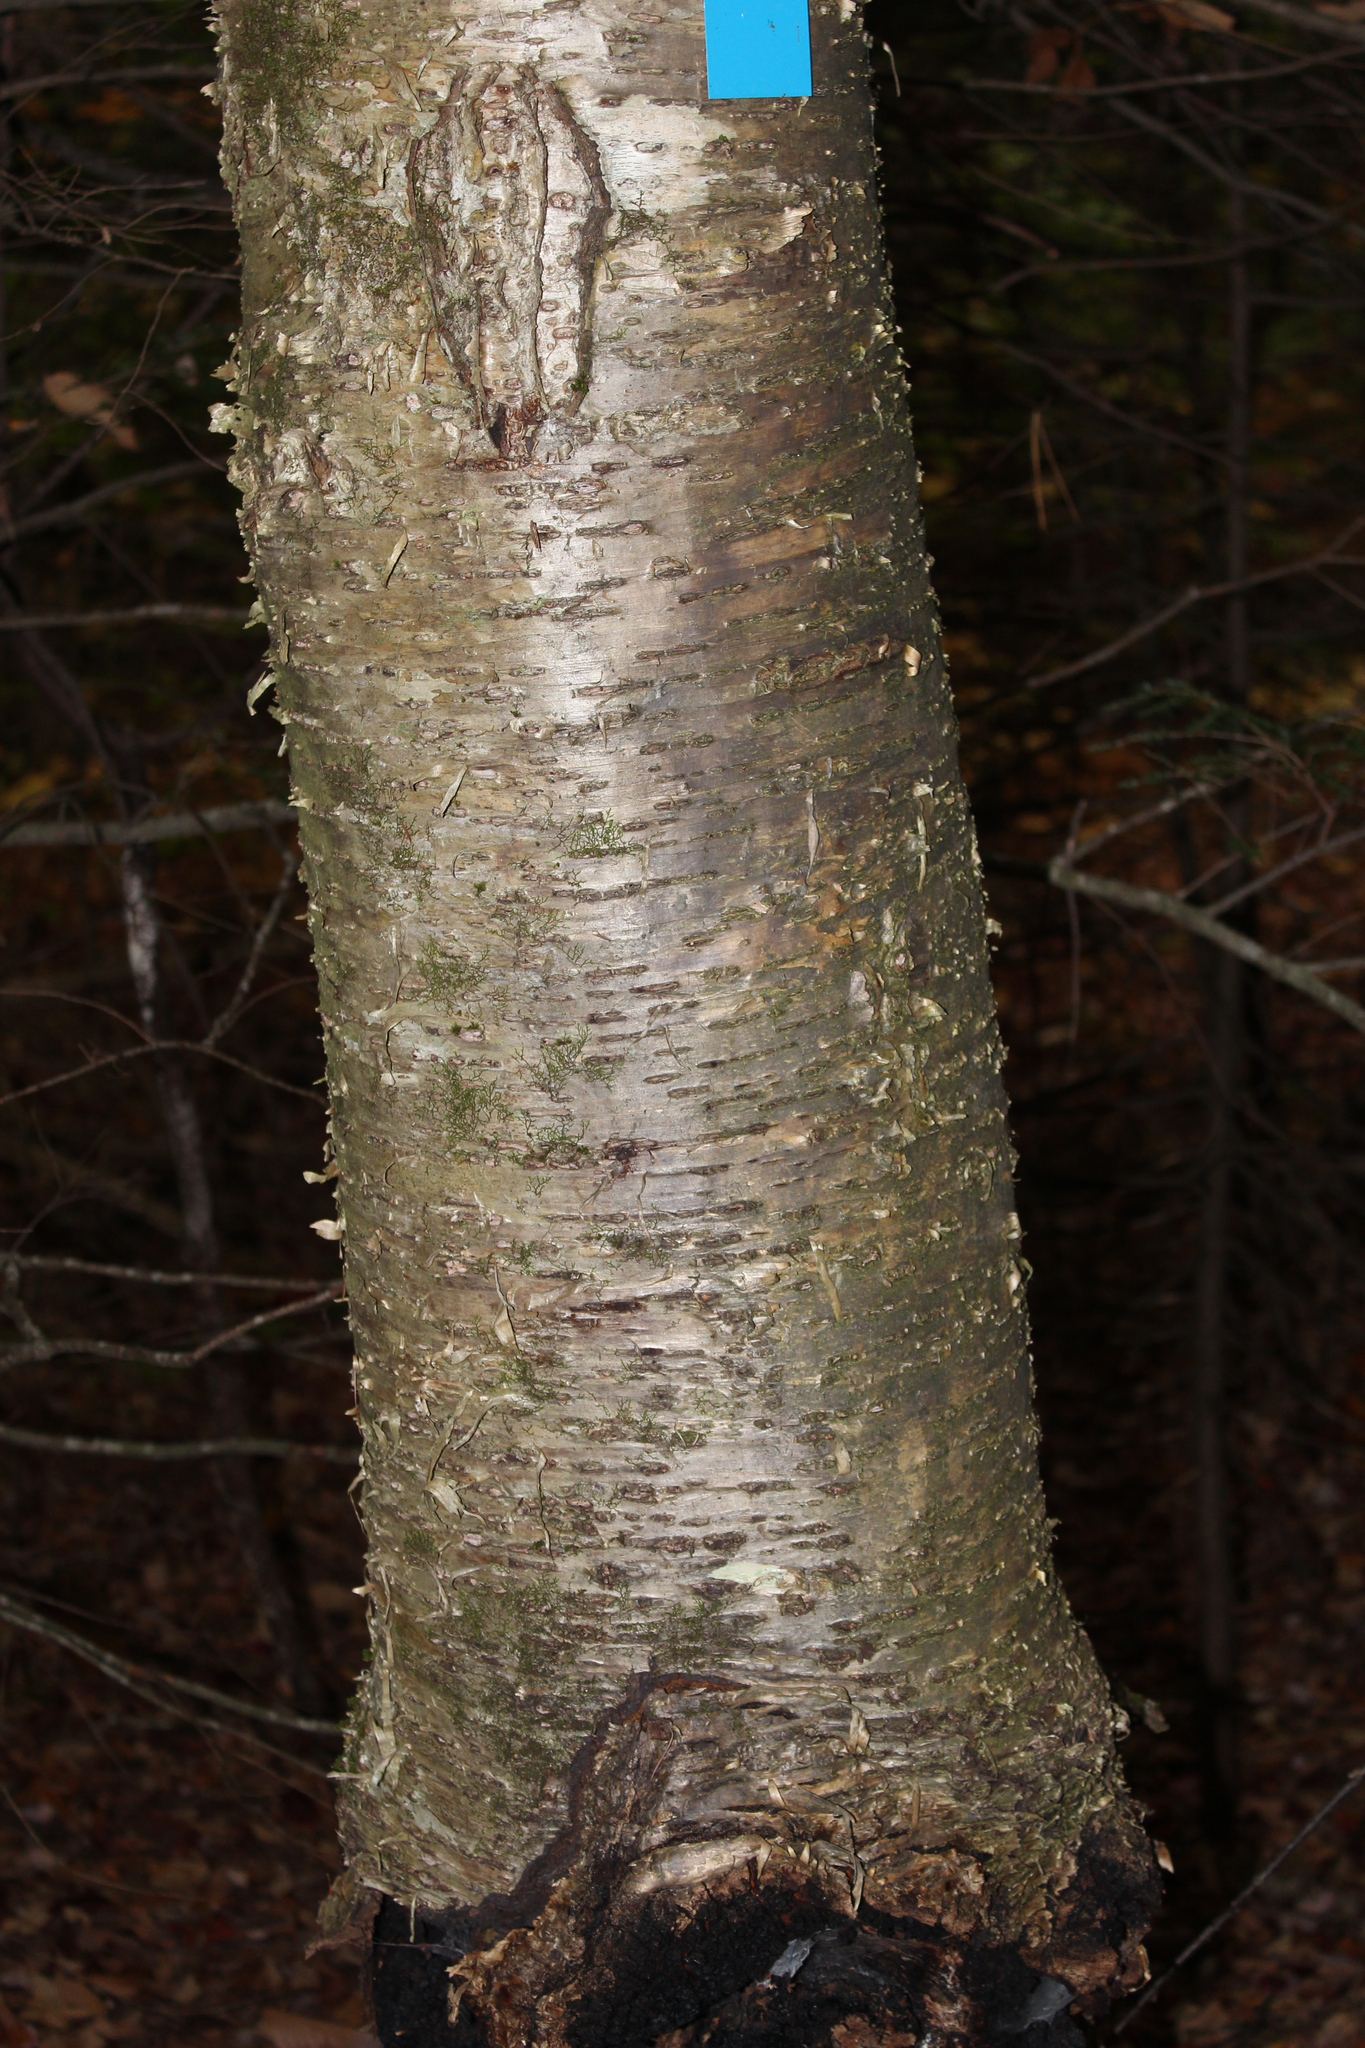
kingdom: Plantae
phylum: Tracheophyta
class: Magnoliopsida
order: Fagales
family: Betulaceae
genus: Betula
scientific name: Betula alleghaniensis
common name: Yellow birch
